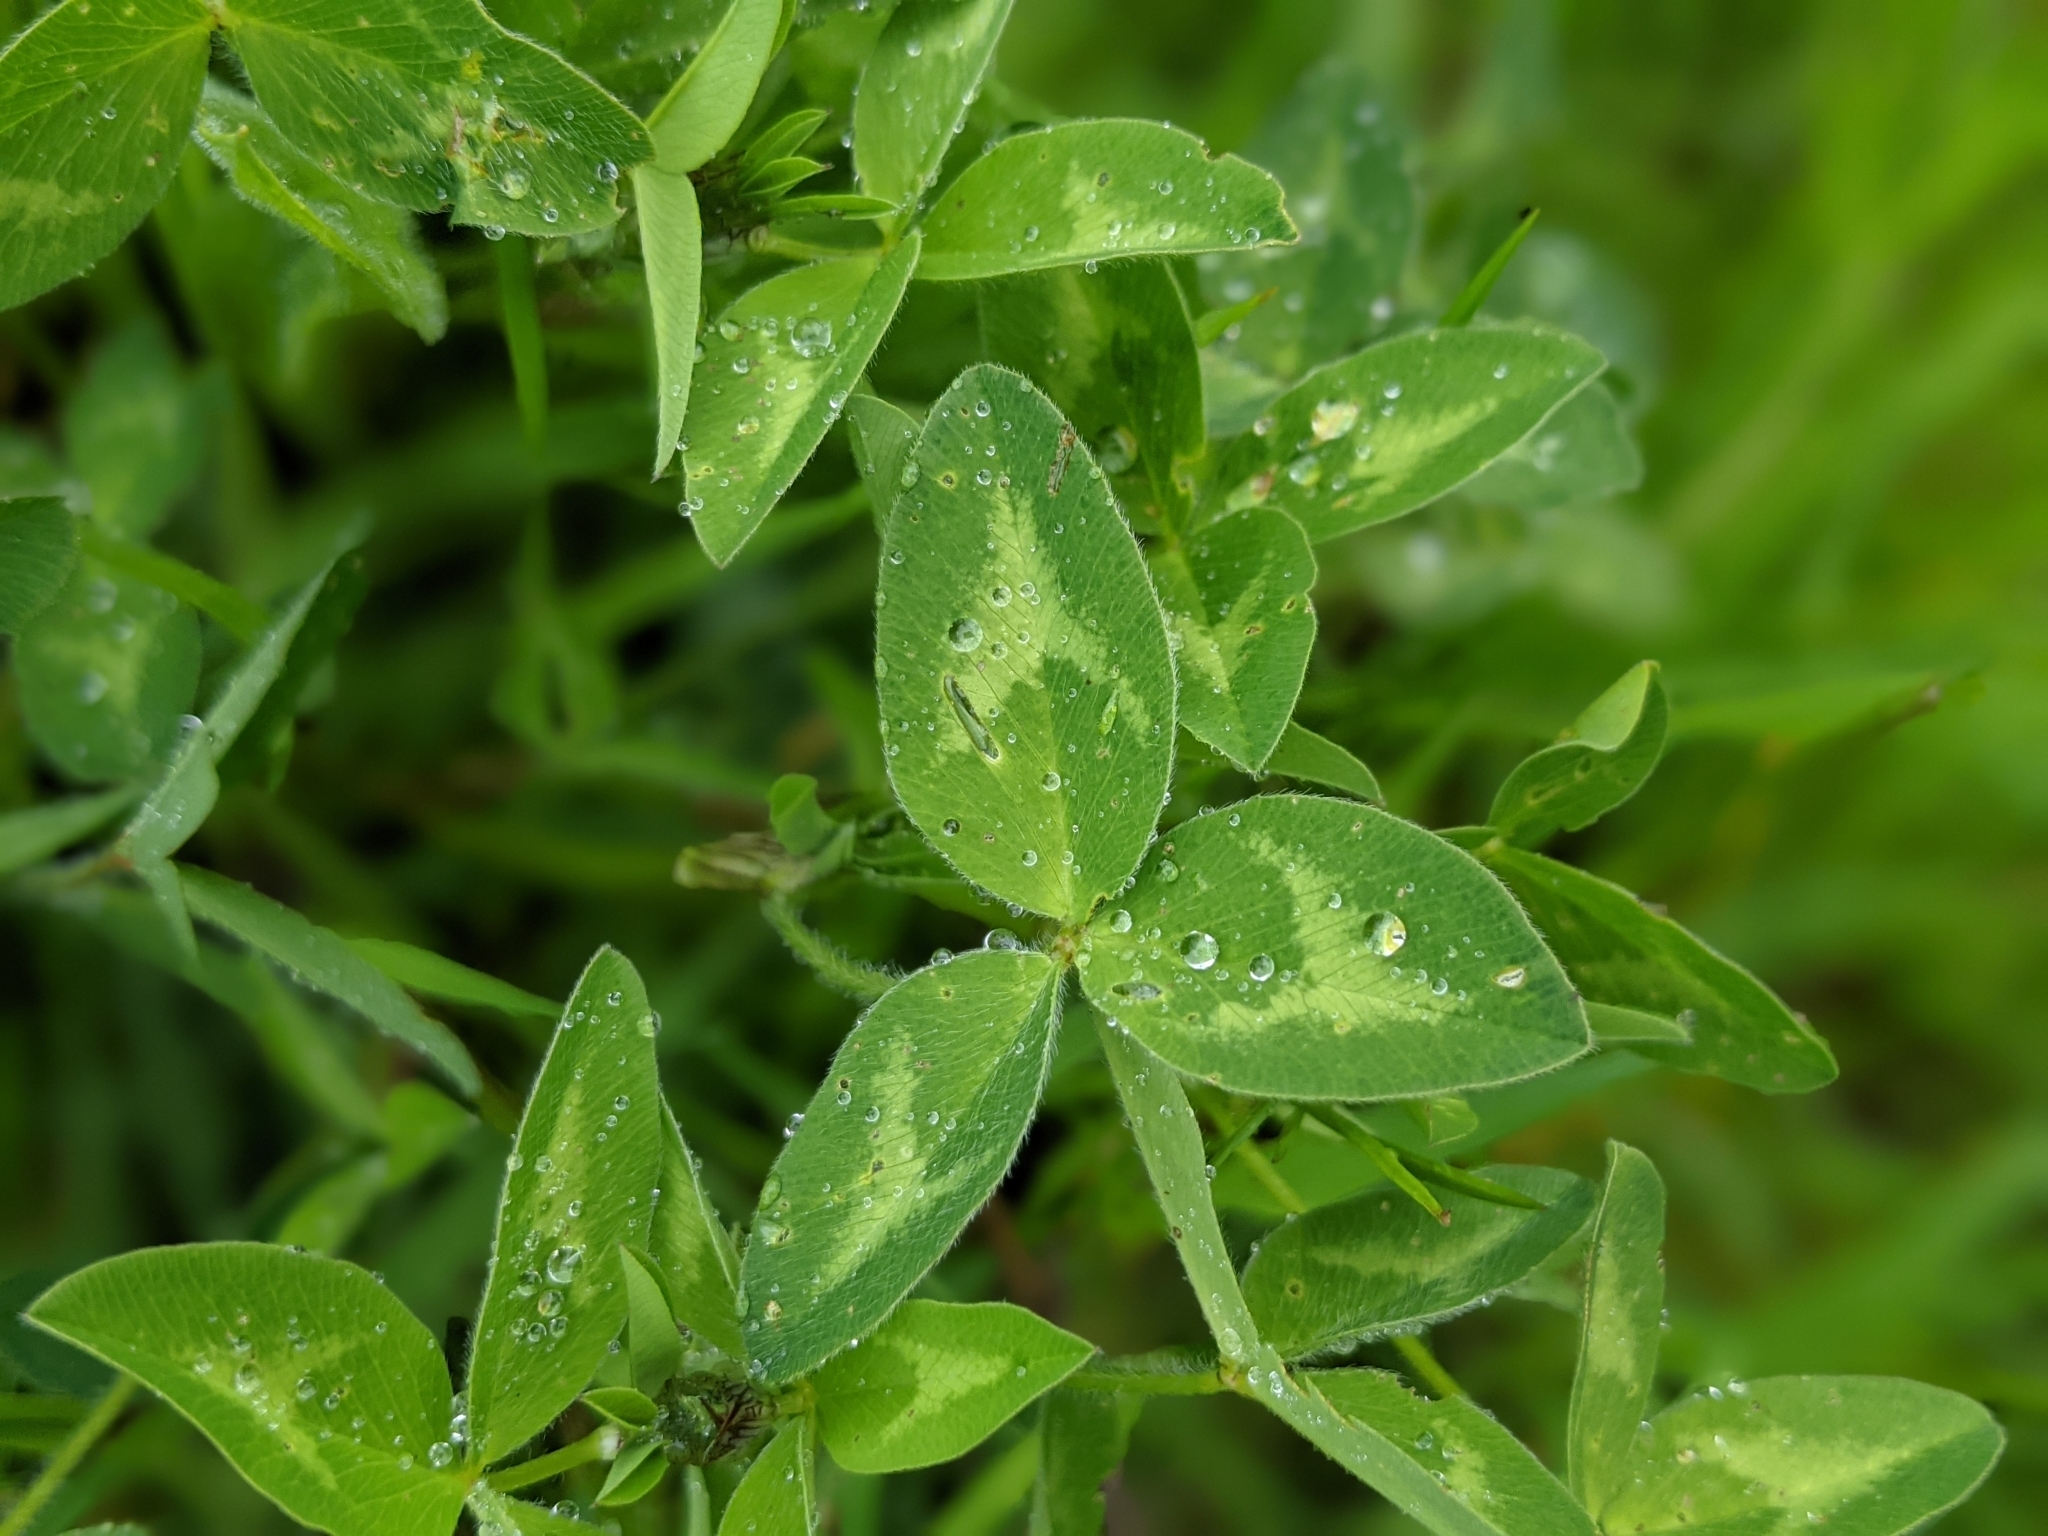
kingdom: Plantae
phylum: Tracheophyta
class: Magnoliopsida
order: Fabales
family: Fabaceae
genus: Trifolium
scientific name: Trifolium pratense
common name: Red clover
